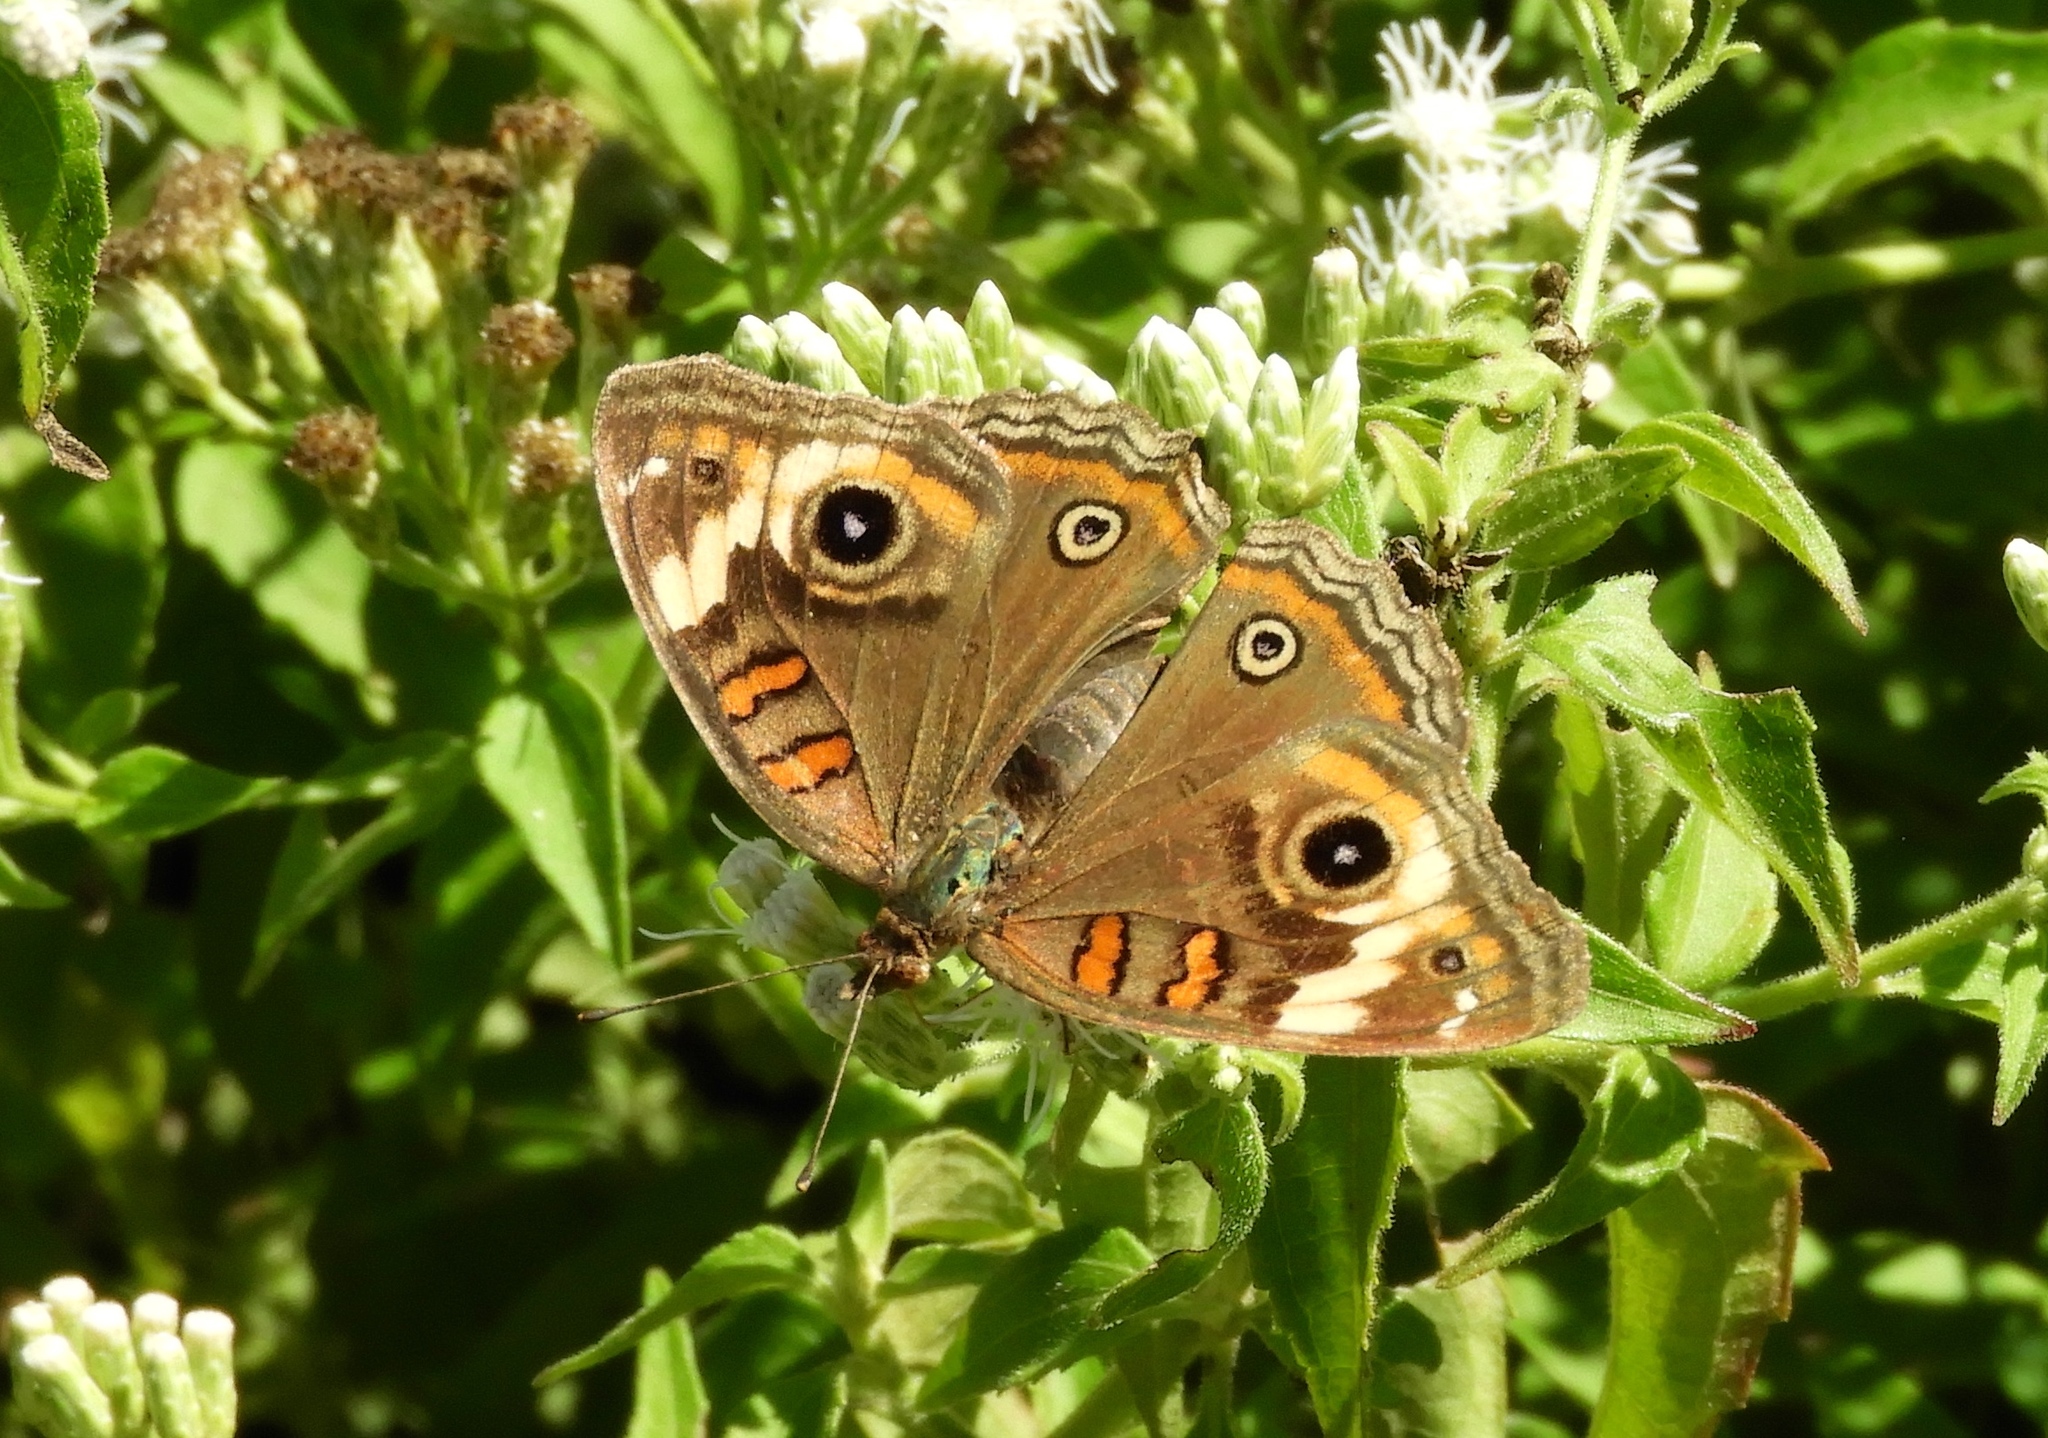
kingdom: Animalia
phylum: Arthropoda
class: Insecta
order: Lepidoptera
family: Nymphalidae
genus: Junonia
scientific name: Junonia
